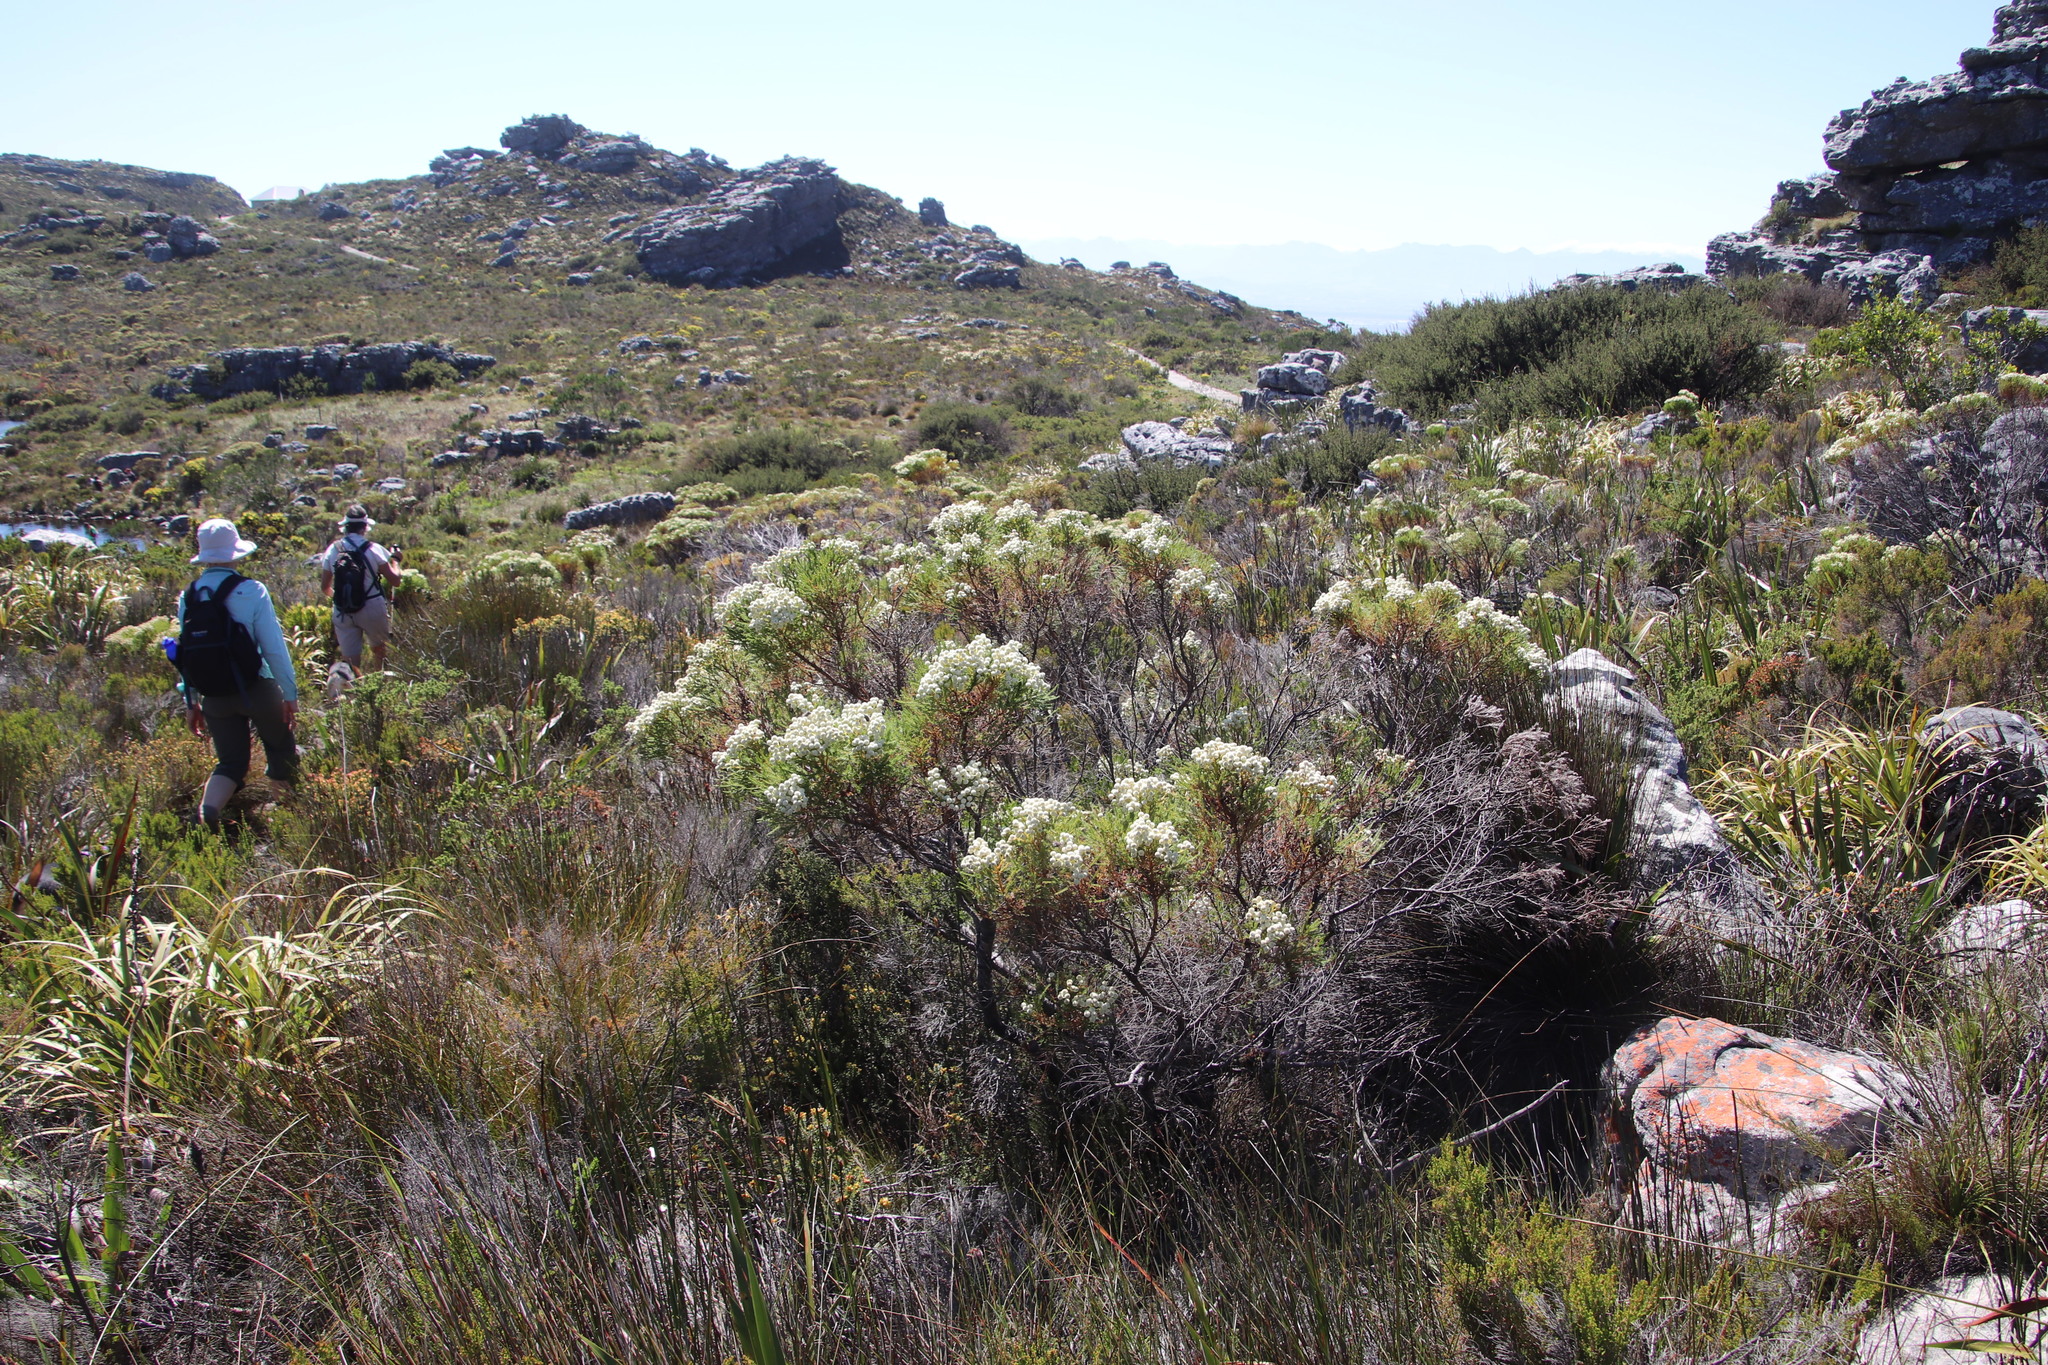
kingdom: Plantae
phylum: Tracheophyta
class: Magnoliopsida
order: Bruniales
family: Bruniaceae
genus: Berzelia
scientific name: Berzelia lanuginosa
